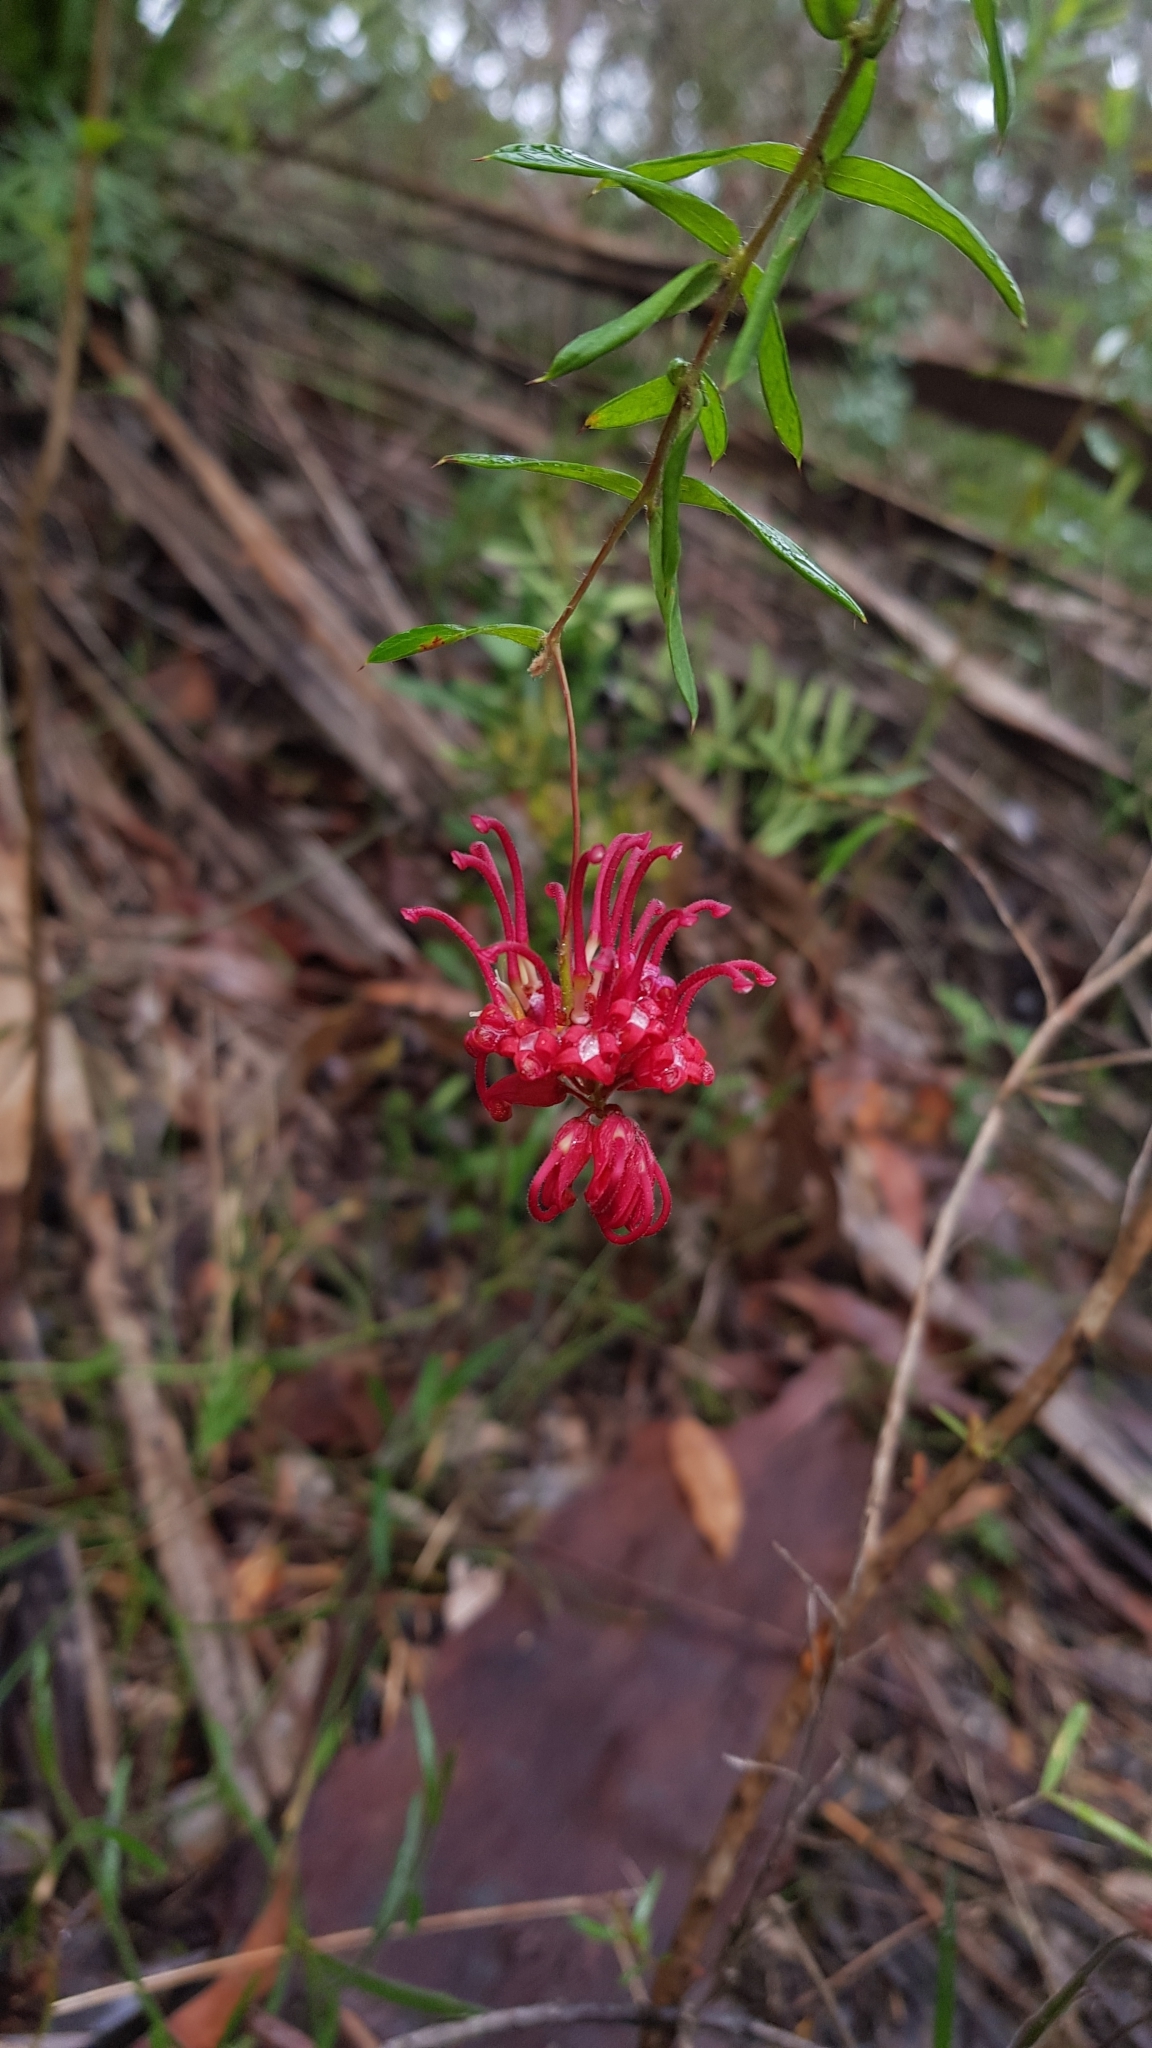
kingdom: Plantae
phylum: Tracheophyta
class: Magnoliopsida
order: Proteales
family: Proteaceae
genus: Grevillea
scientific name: Grevillea oldei
